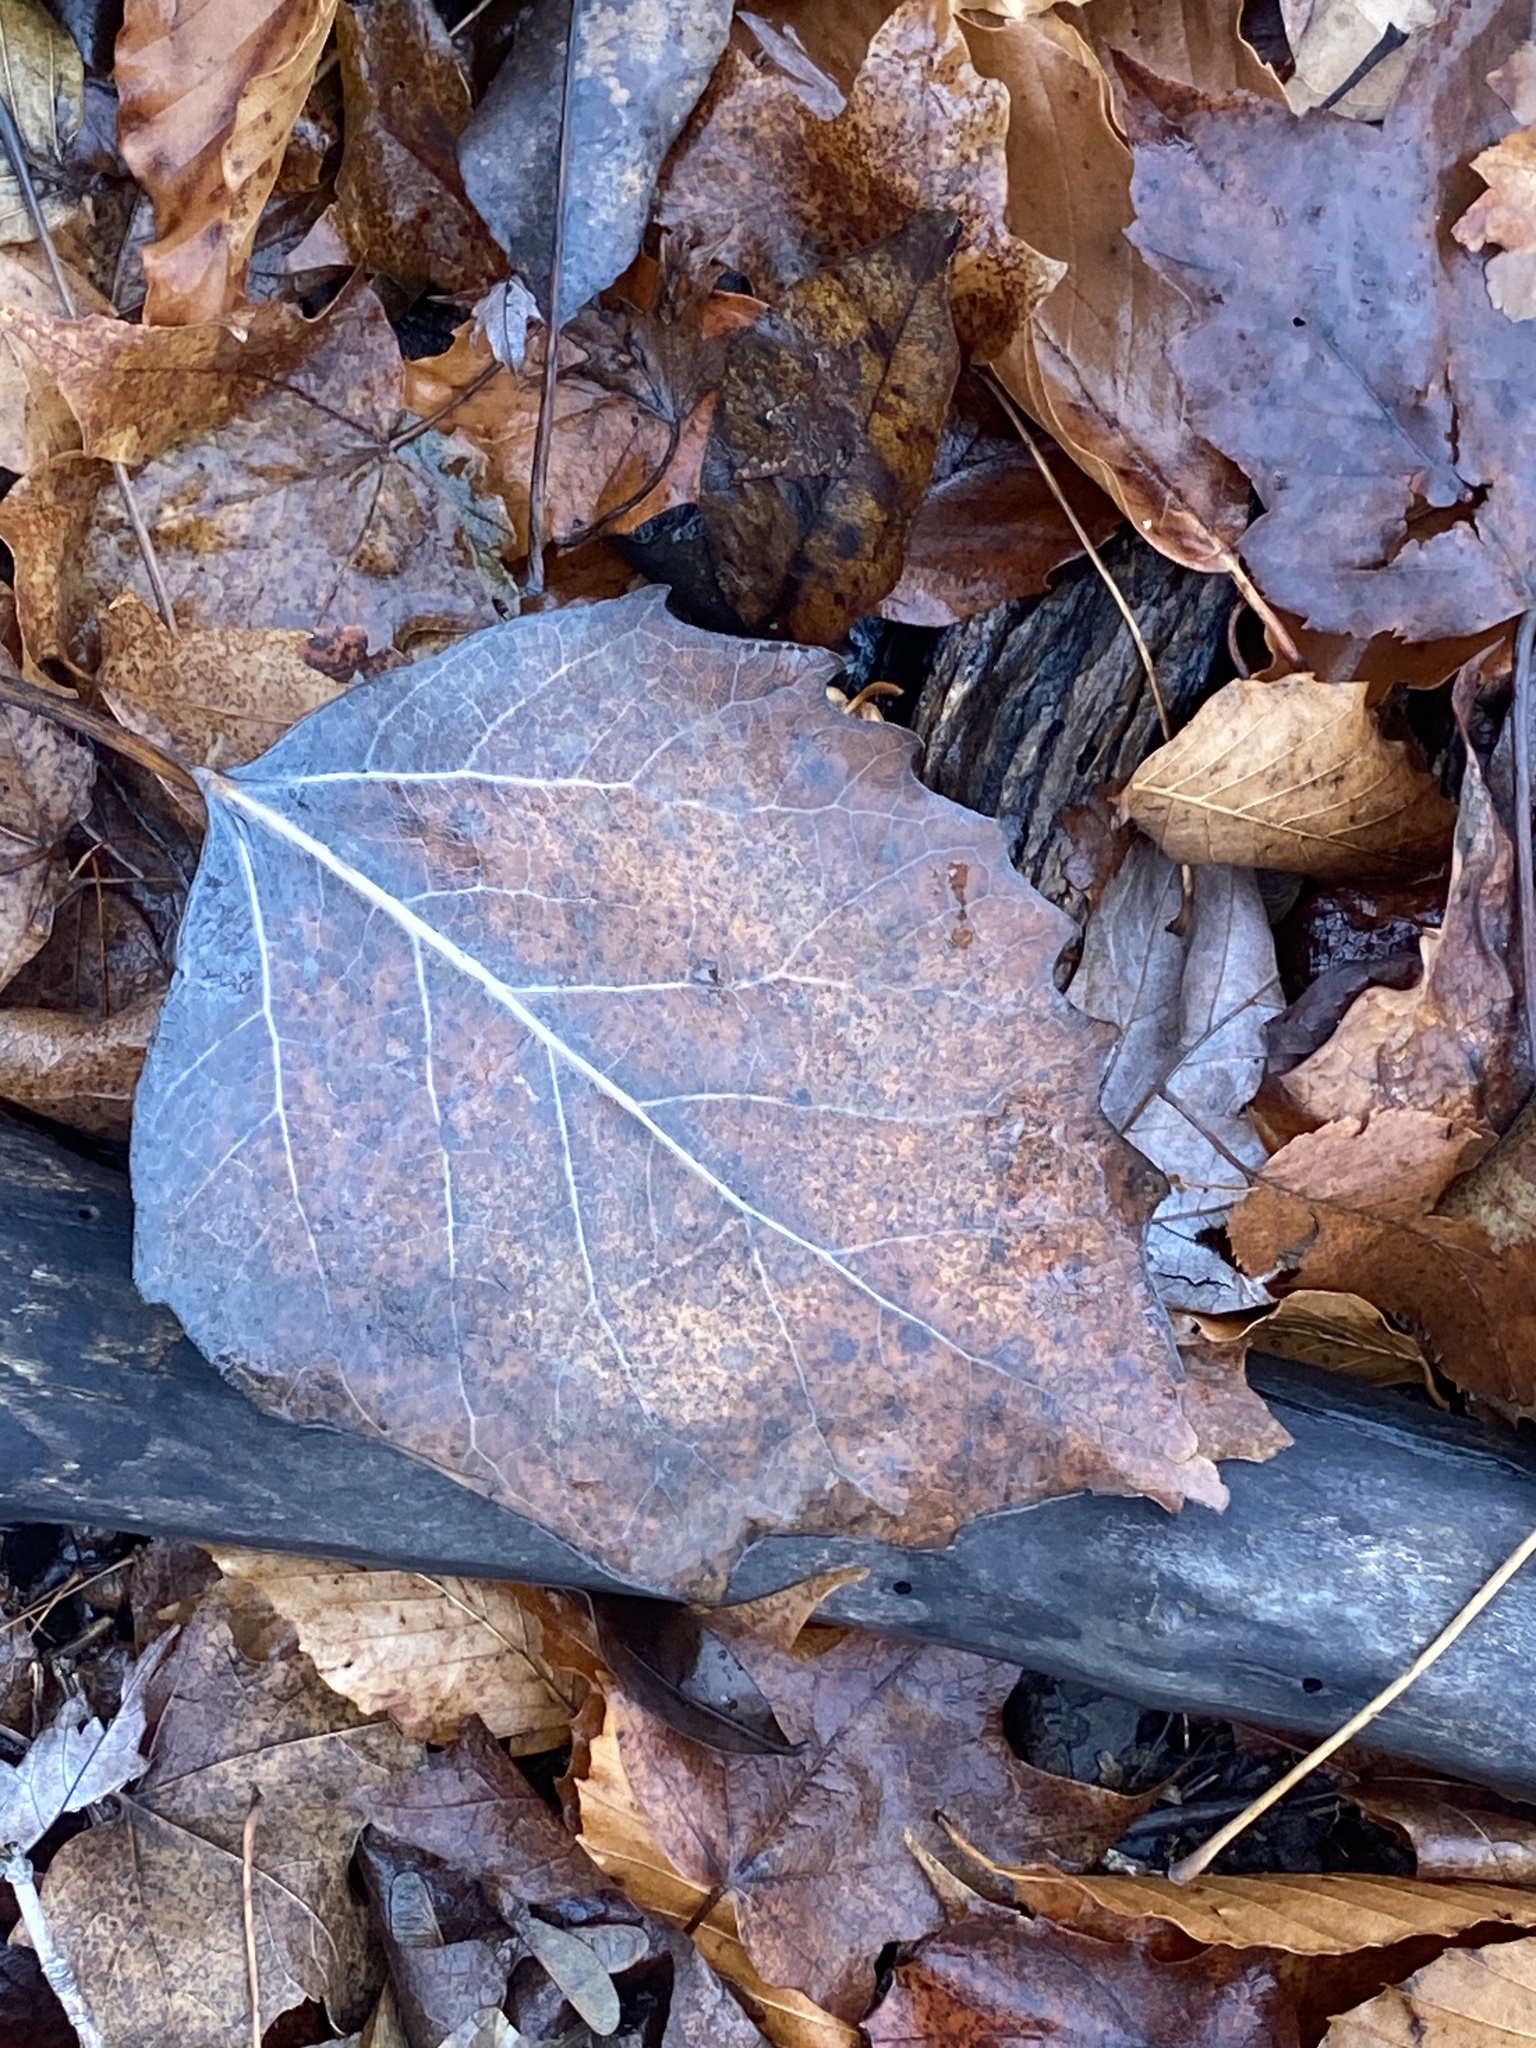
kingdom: Plantae
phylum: Tracheophyta
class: Magnoliopsida
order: Malpighiales
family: Salicaceae
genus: Populus
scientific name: Populus grandidentata
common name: Bigtooth aspen
